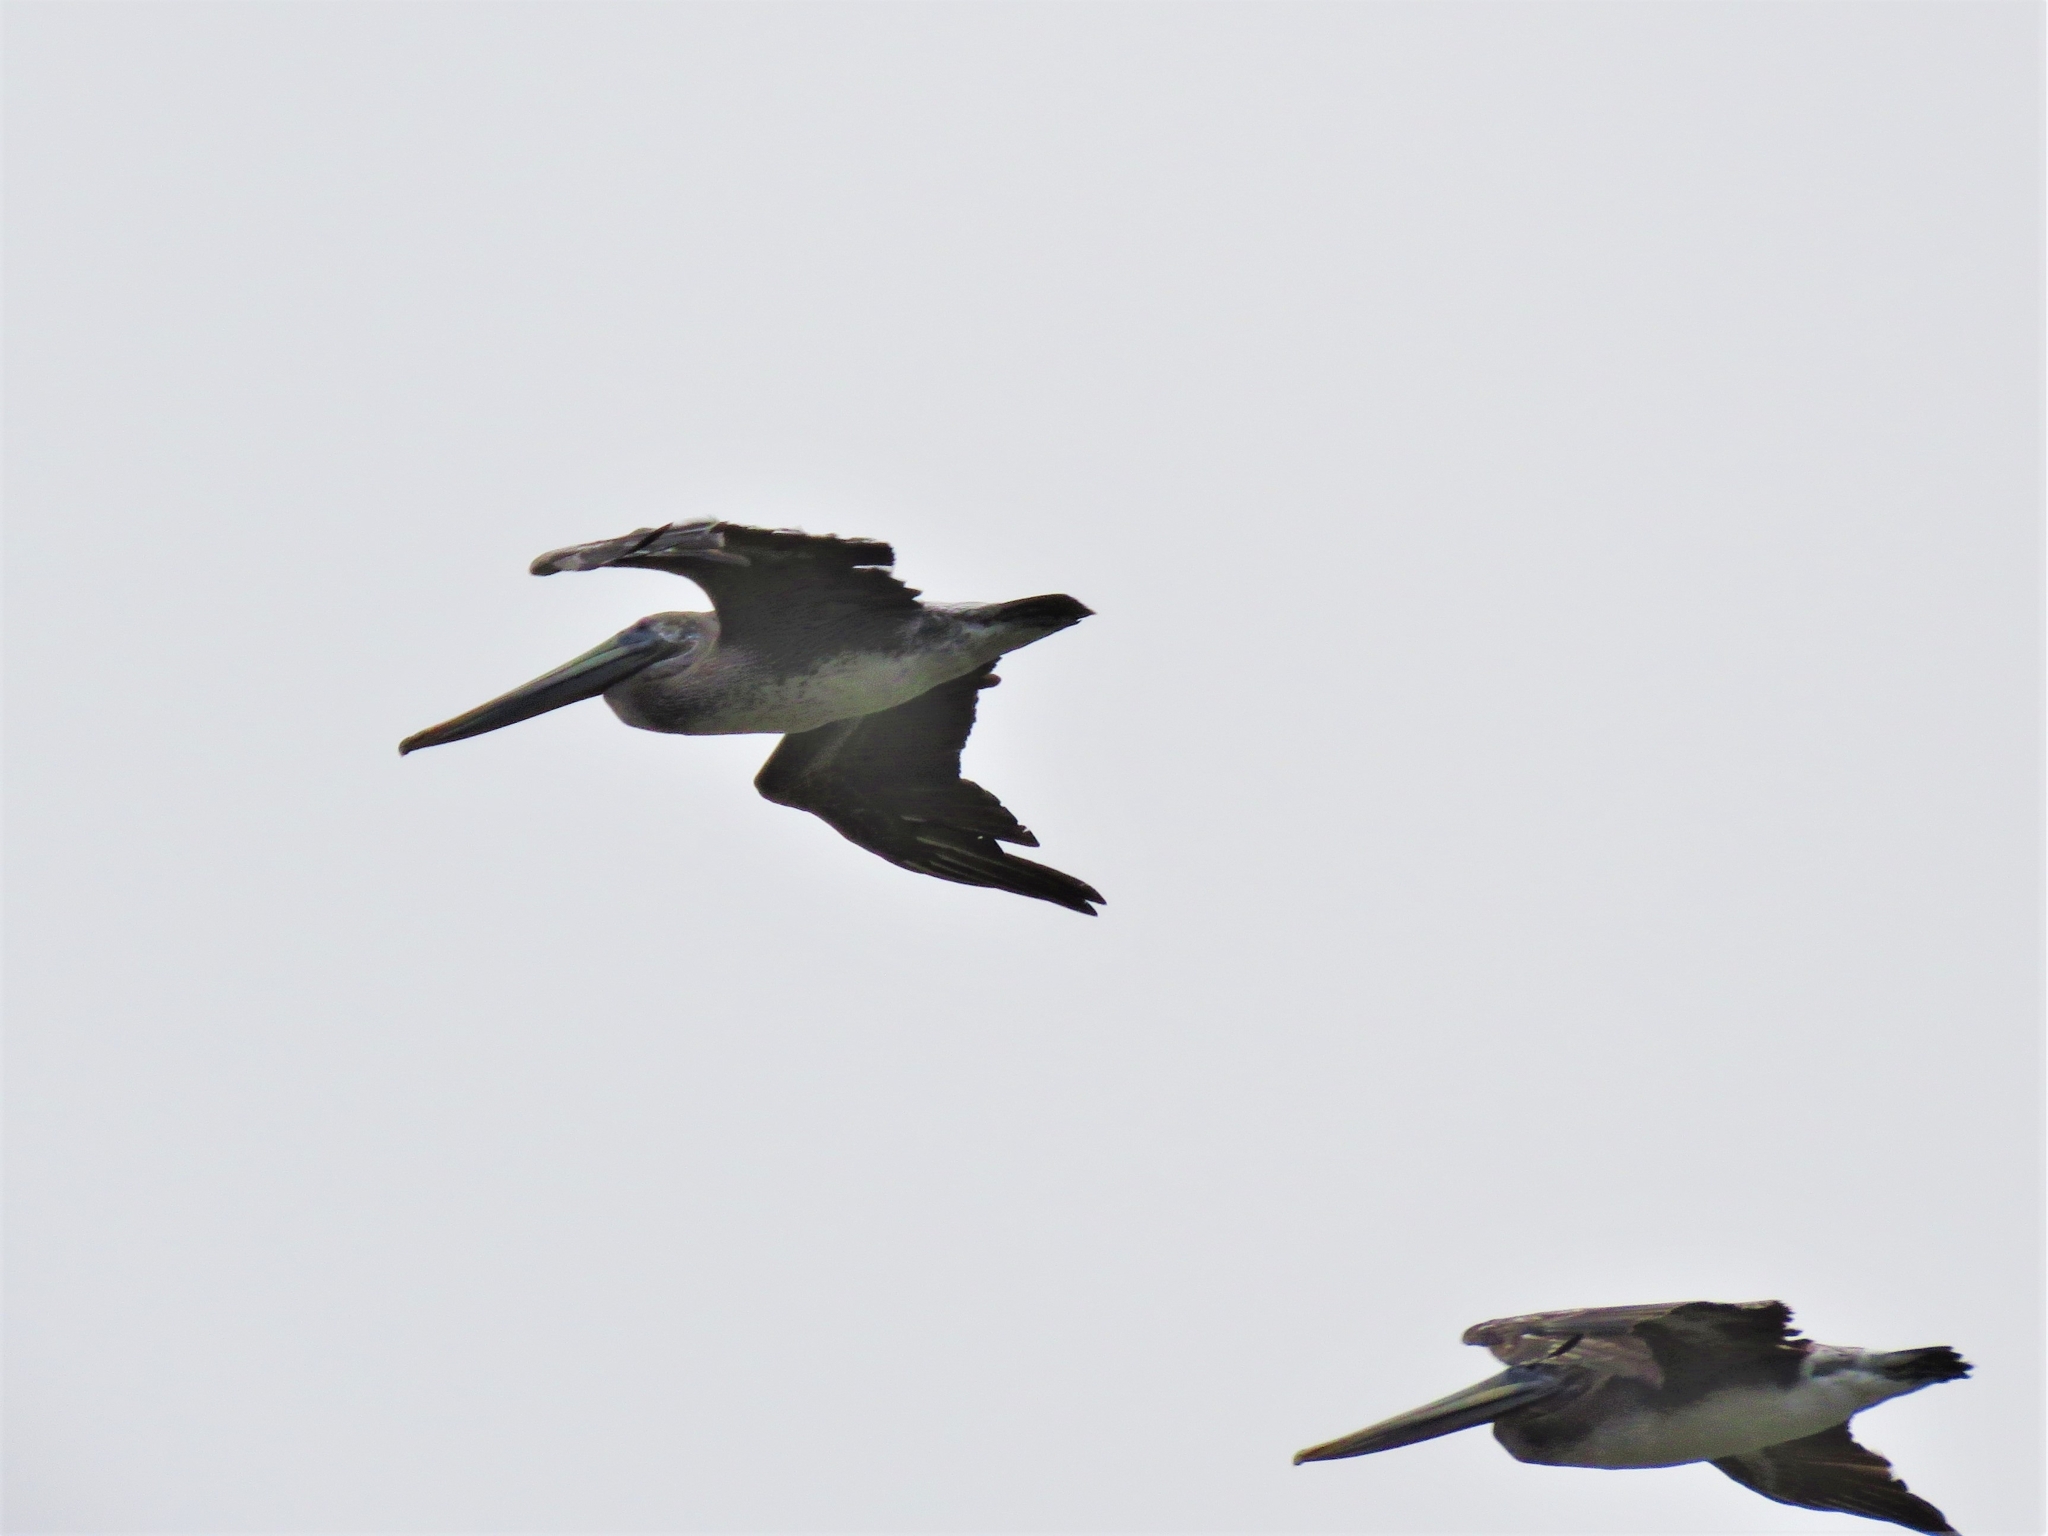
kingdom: Animalia
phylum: Chordata
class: Aves
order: Pelecaniformes
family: Pelecanidae
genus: Pelecanus
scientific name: Pelecanus occidentalis
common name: Brown pelican
